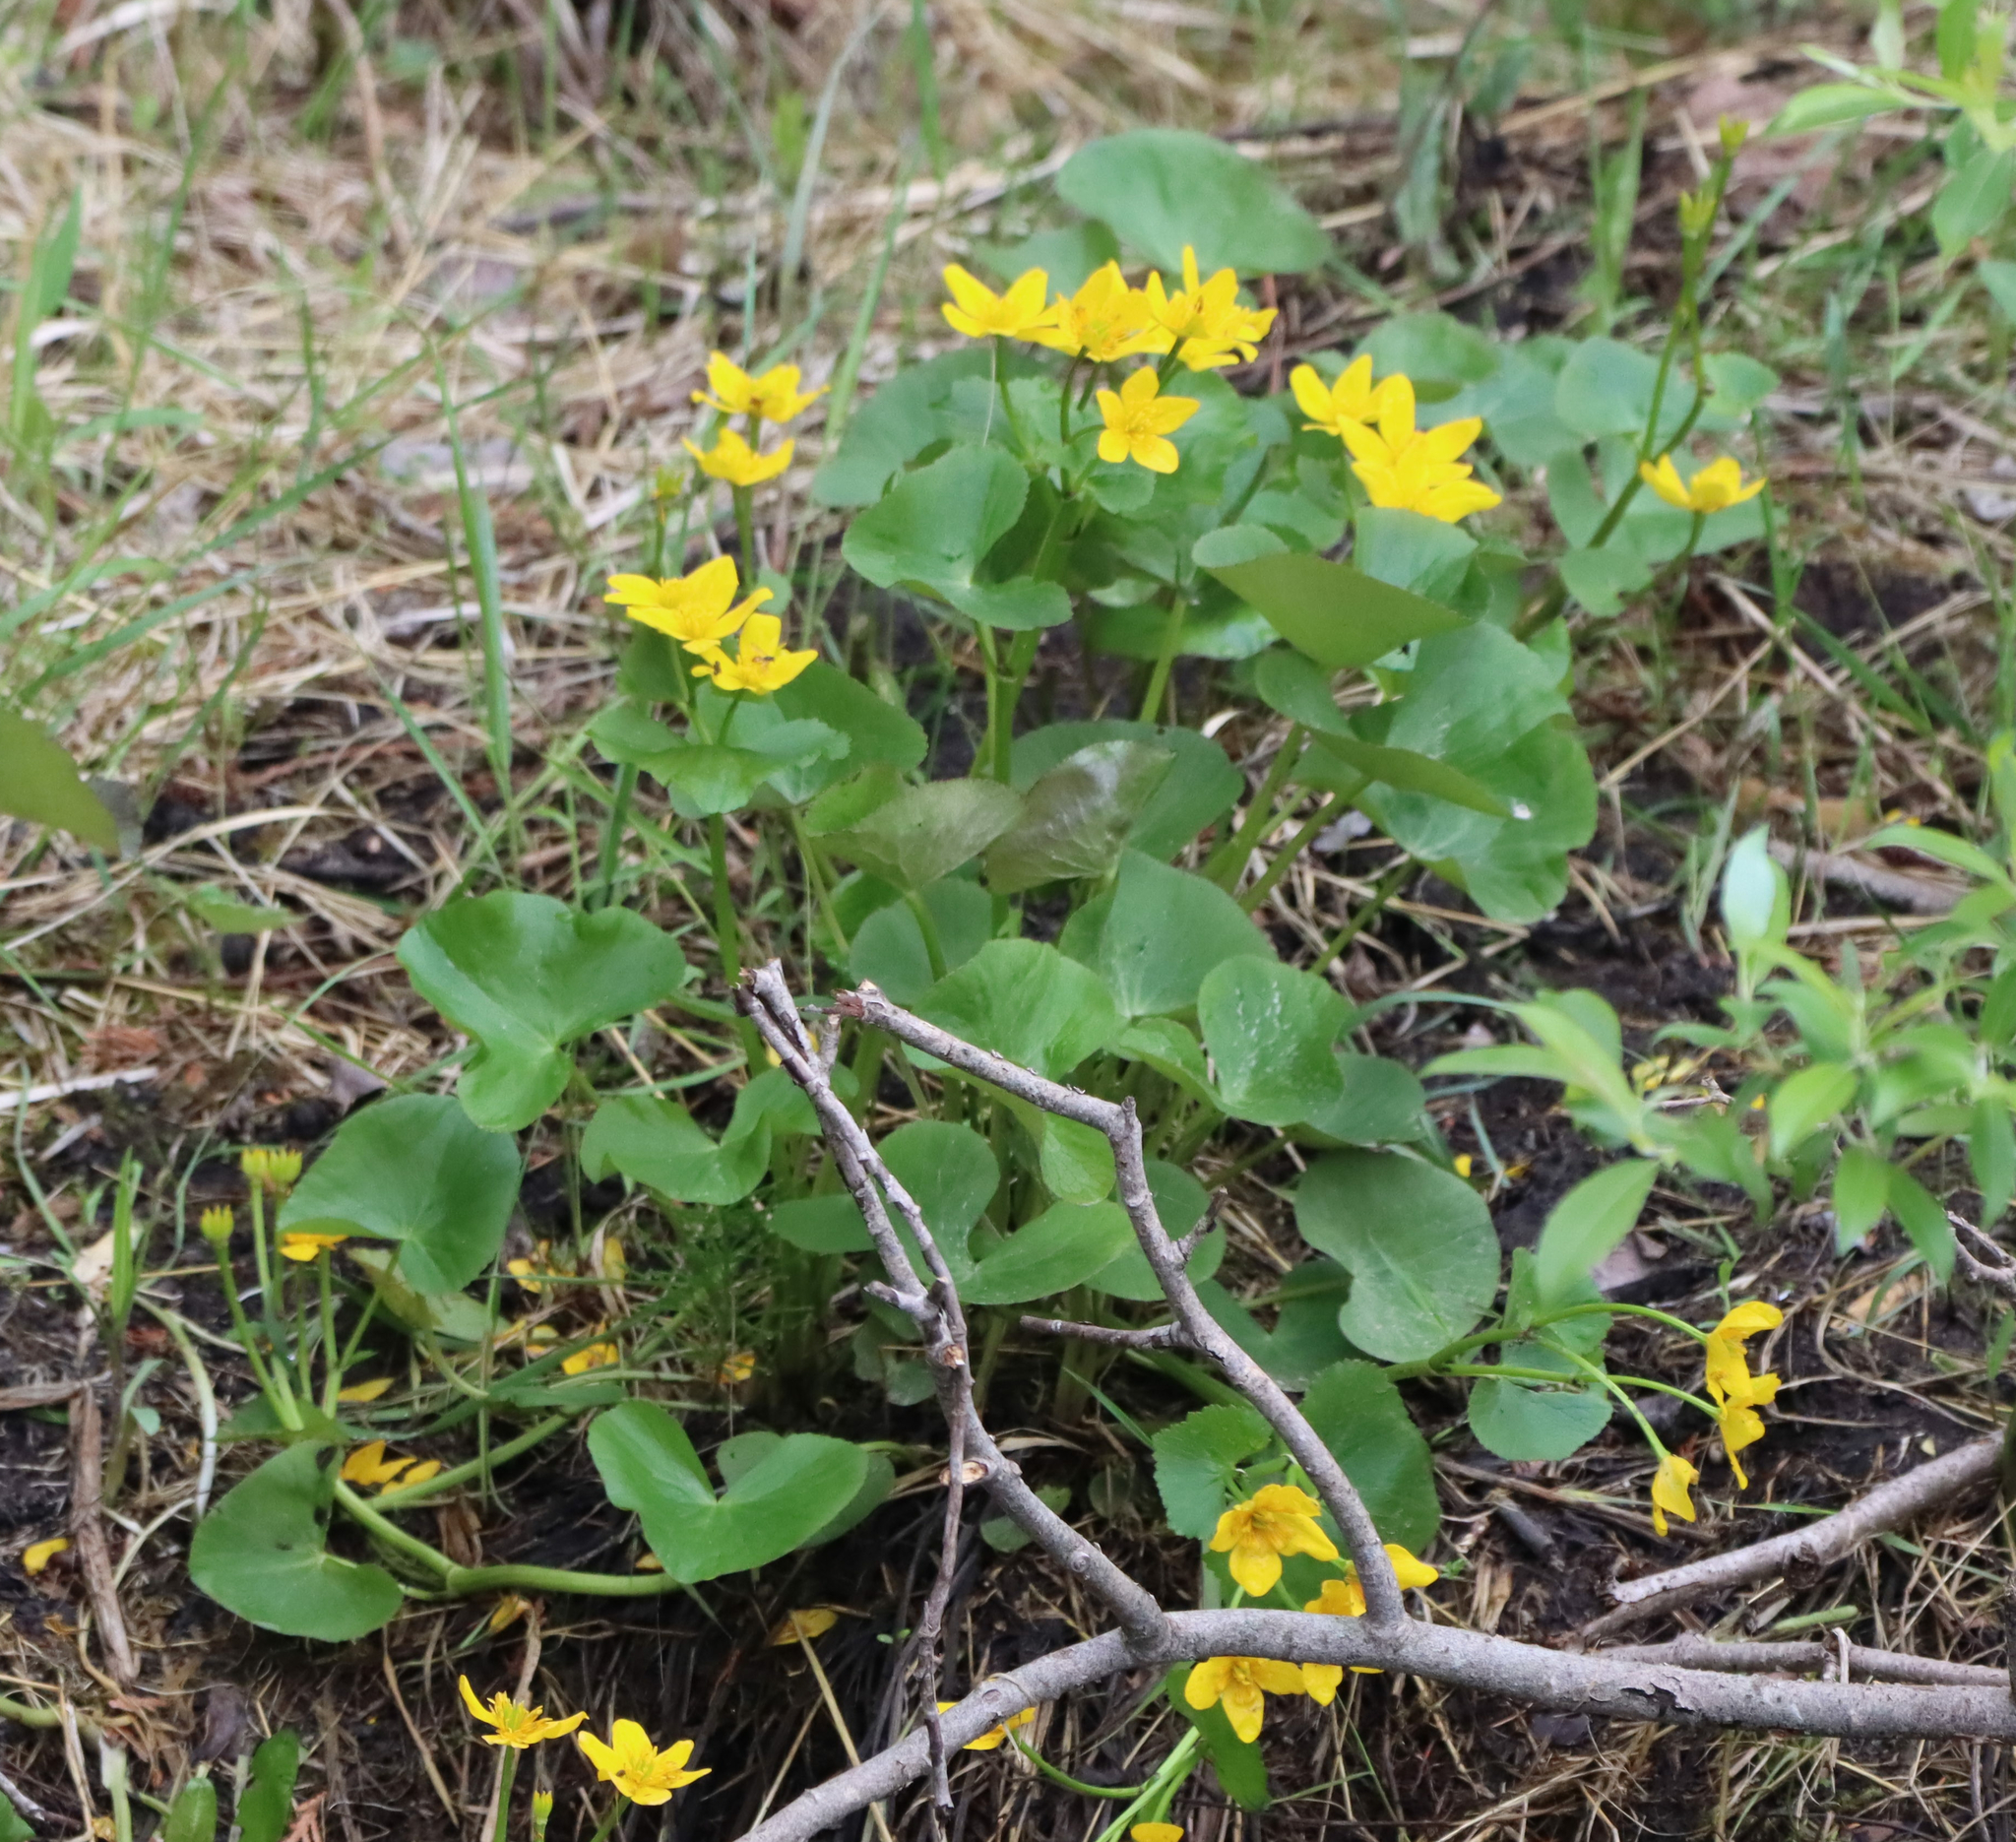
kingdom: Plantae
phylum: Tracheophyta
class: Magnoliopsida
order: Ranunculales
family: Ranunculaceae
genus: Caltha
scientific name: Caltha palustris
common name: Marsh marigold
